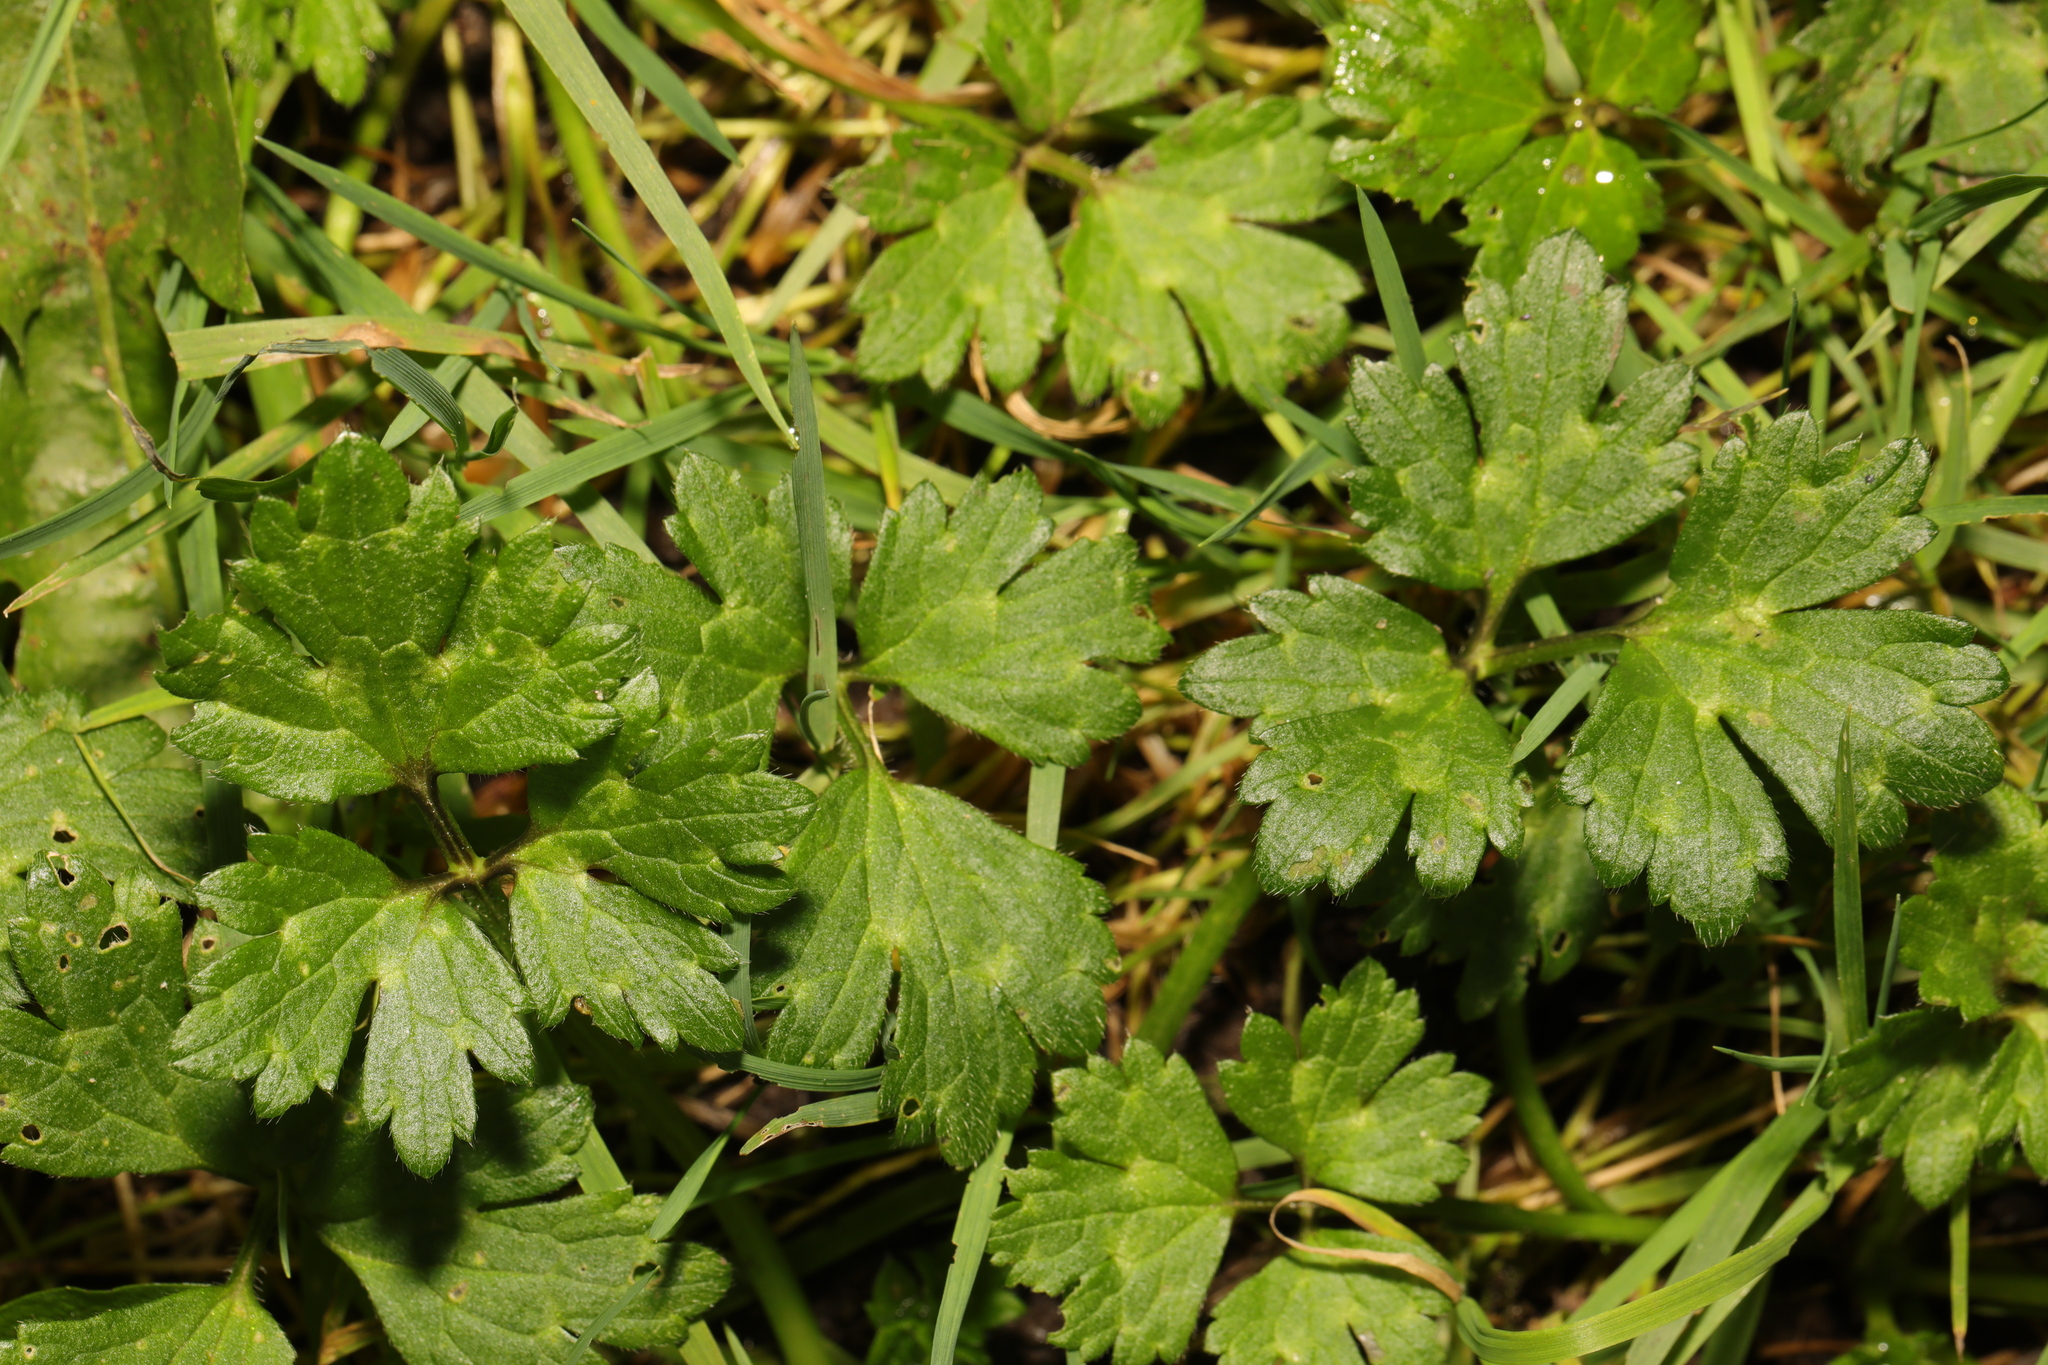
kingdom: Plantae
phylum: Tracheophyta
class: Magnoliopsida
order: Ranunculales
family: Ranunculaceae
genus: Ranunculus
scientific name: Ranunculus repens
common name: Creeping buttercup
